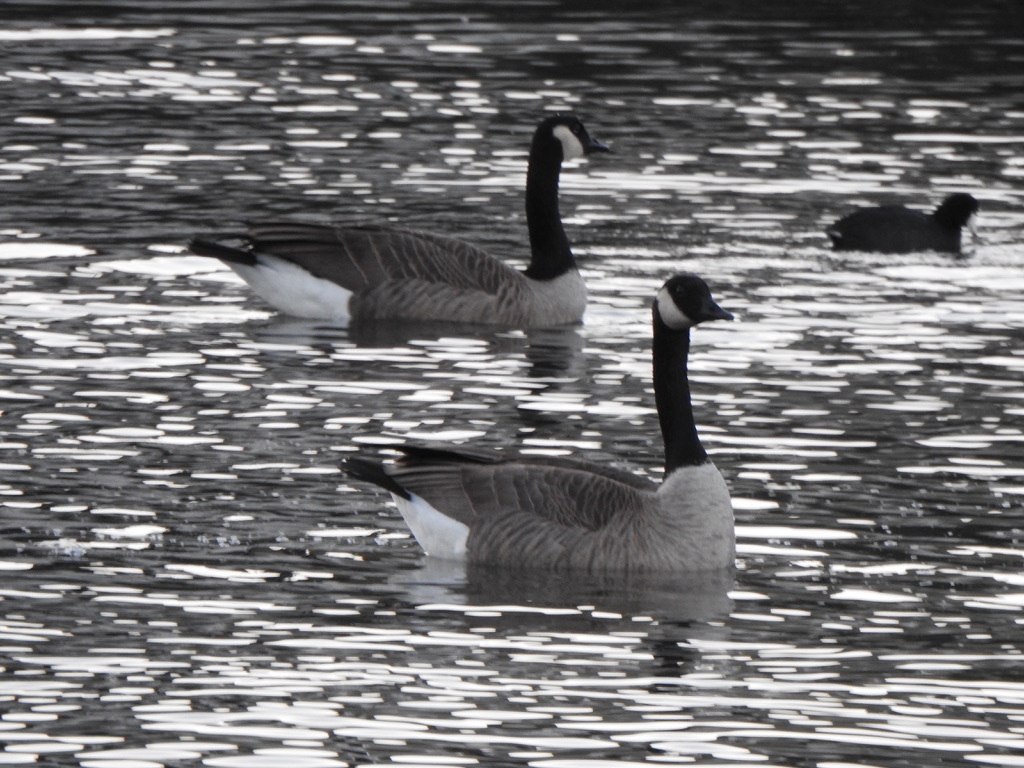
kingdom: Animalia
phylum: Chordata
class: Aves
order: Anseriformes
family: Anatidae
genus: Branta
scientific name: Branta canadensis
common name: Canada goose
